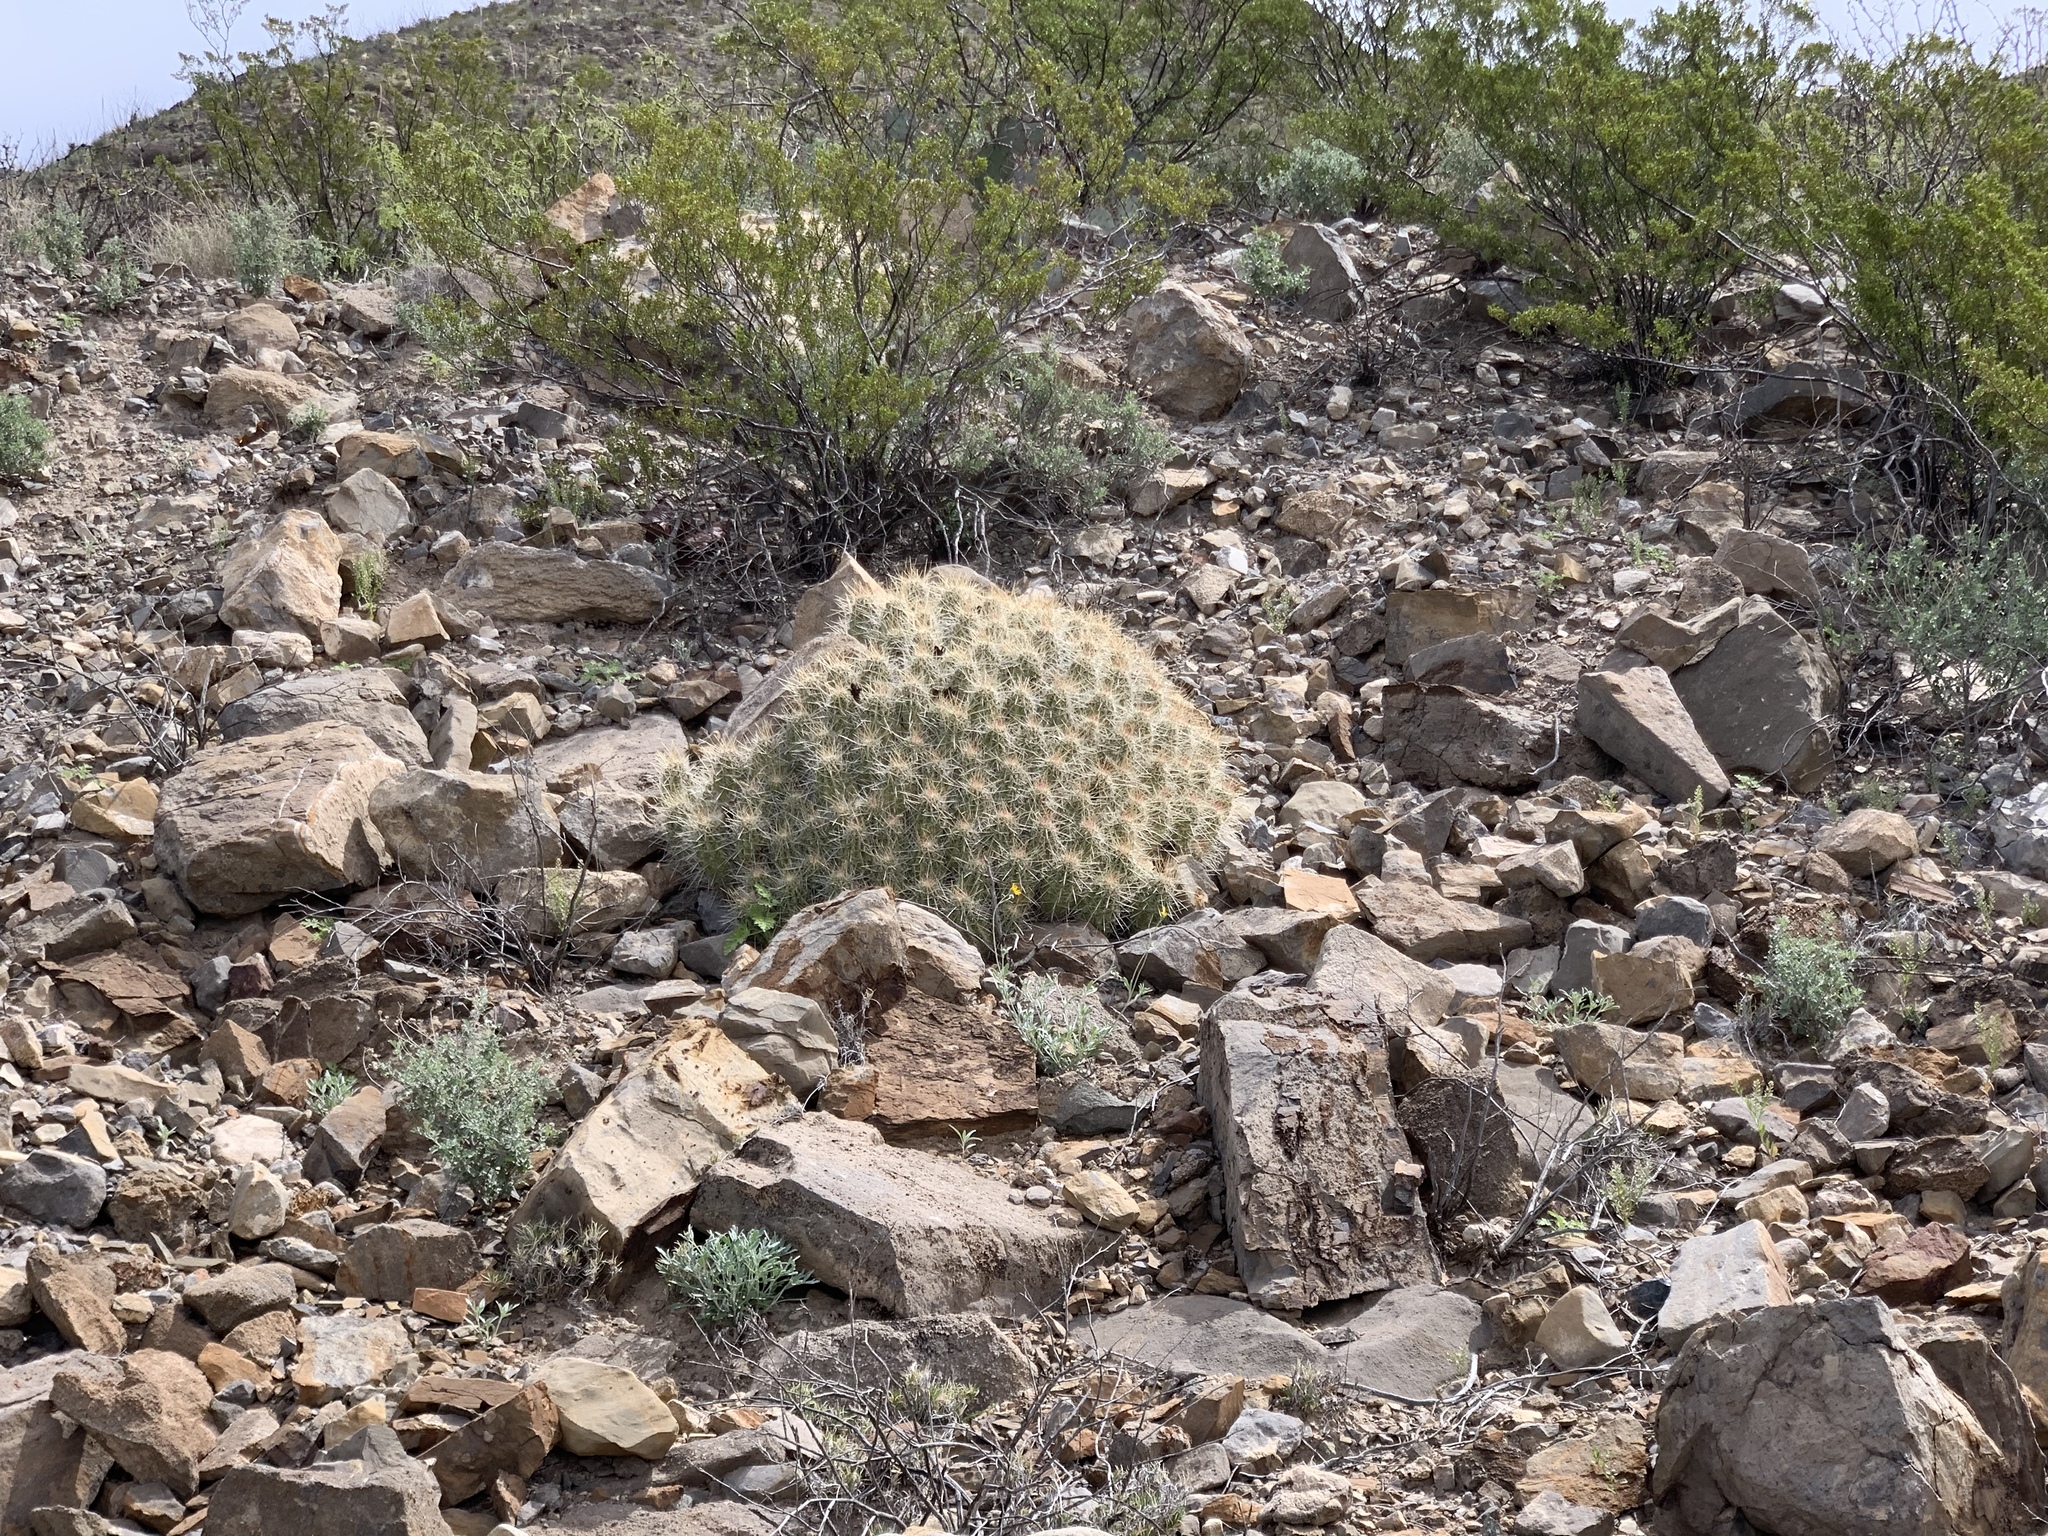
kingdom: Plantae
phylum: Tracheophyta
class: Magnoliopsida
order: Caryophyllales
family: Cactaceae
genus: Echinocereus
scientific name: Echinocereus stramineus
